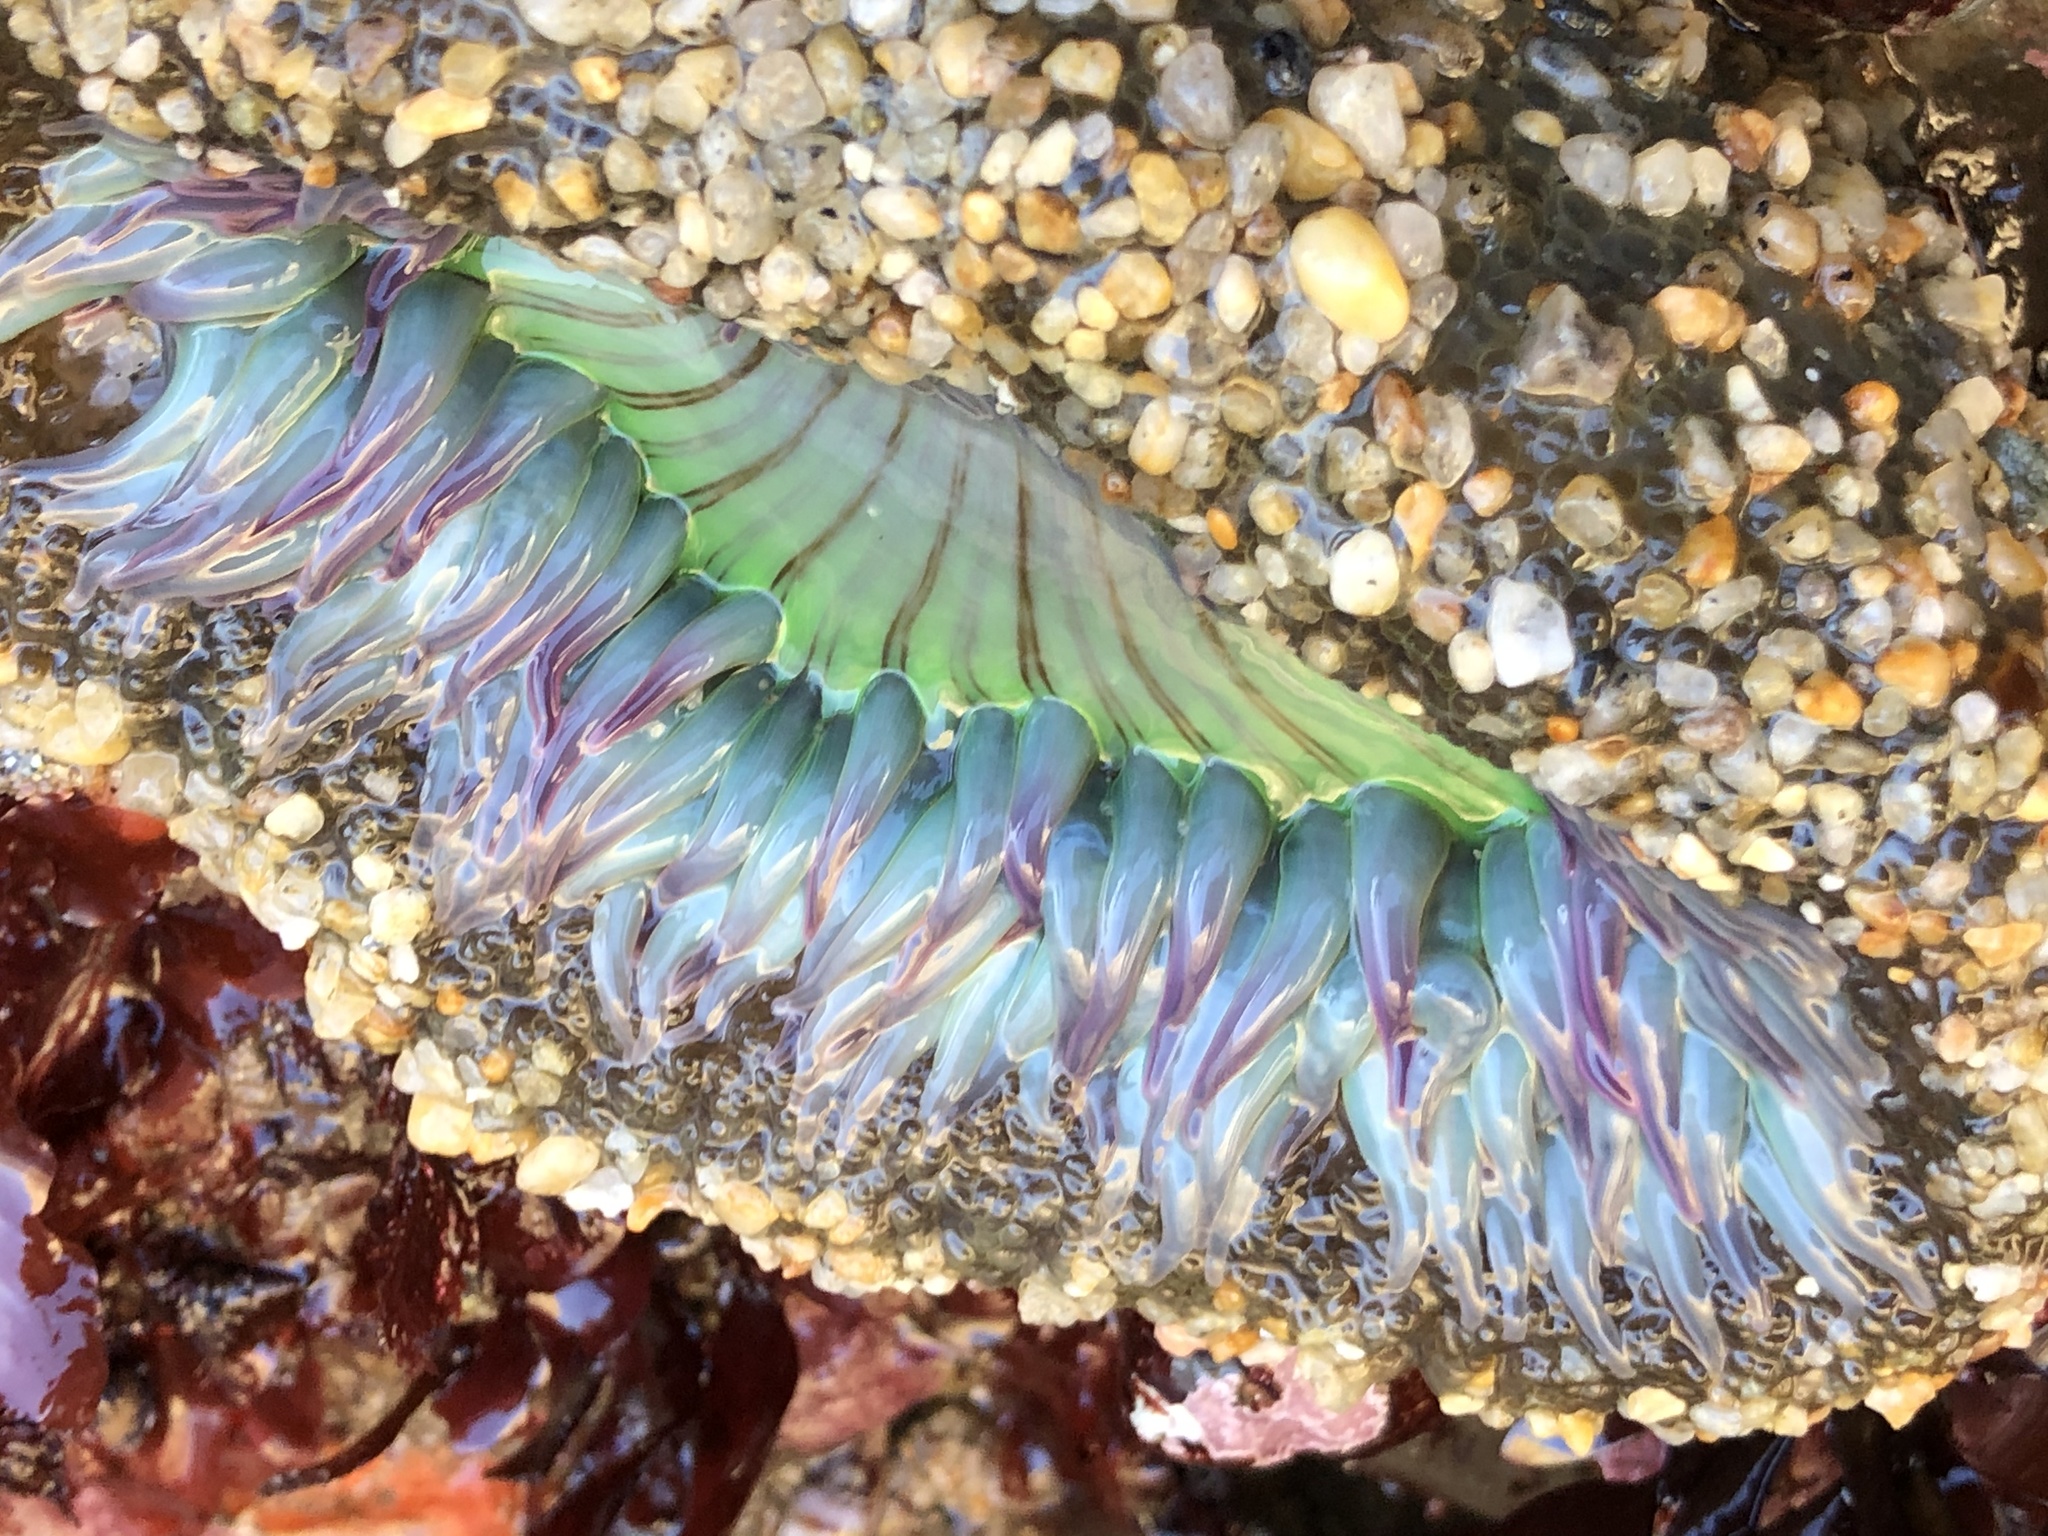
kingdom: Animalia
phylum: Cnidaria
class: Anthozoa
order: Actiniaria
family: Actiniidae
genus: Anthopleura
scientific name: Anthopleura sola
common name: Sun anemone
